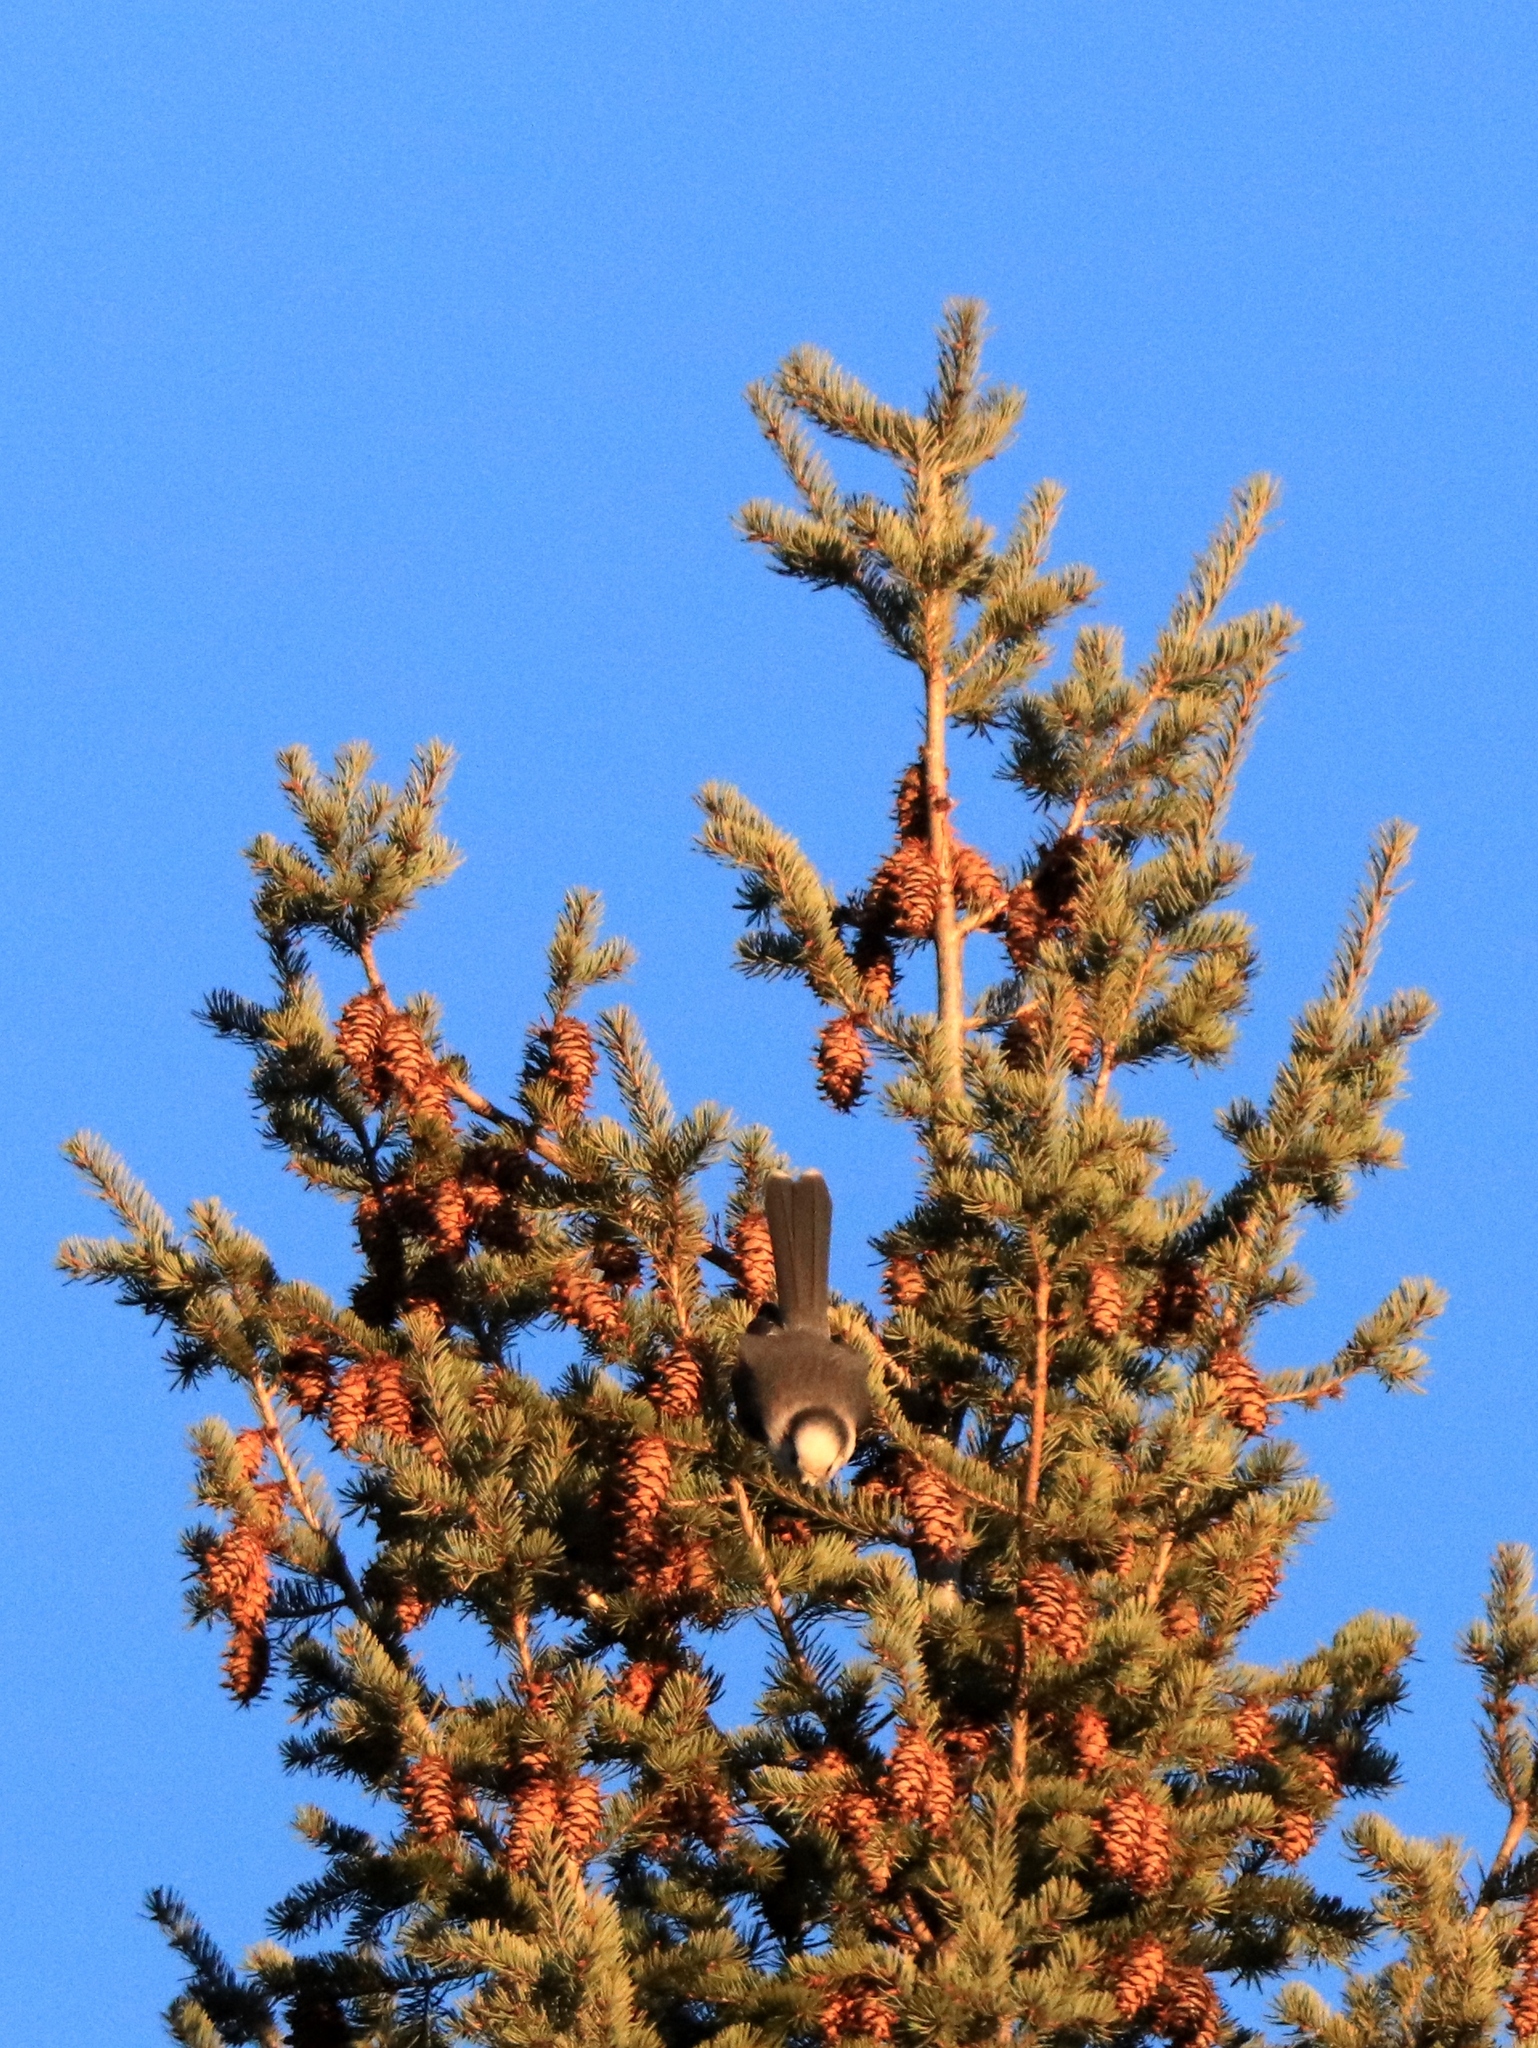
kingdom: Animalia
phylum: Chordata
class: Aves
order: Passeriformes
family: Corvidae
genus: Perisoreus
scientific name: Perisoreus canadensis
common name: Gray jay
